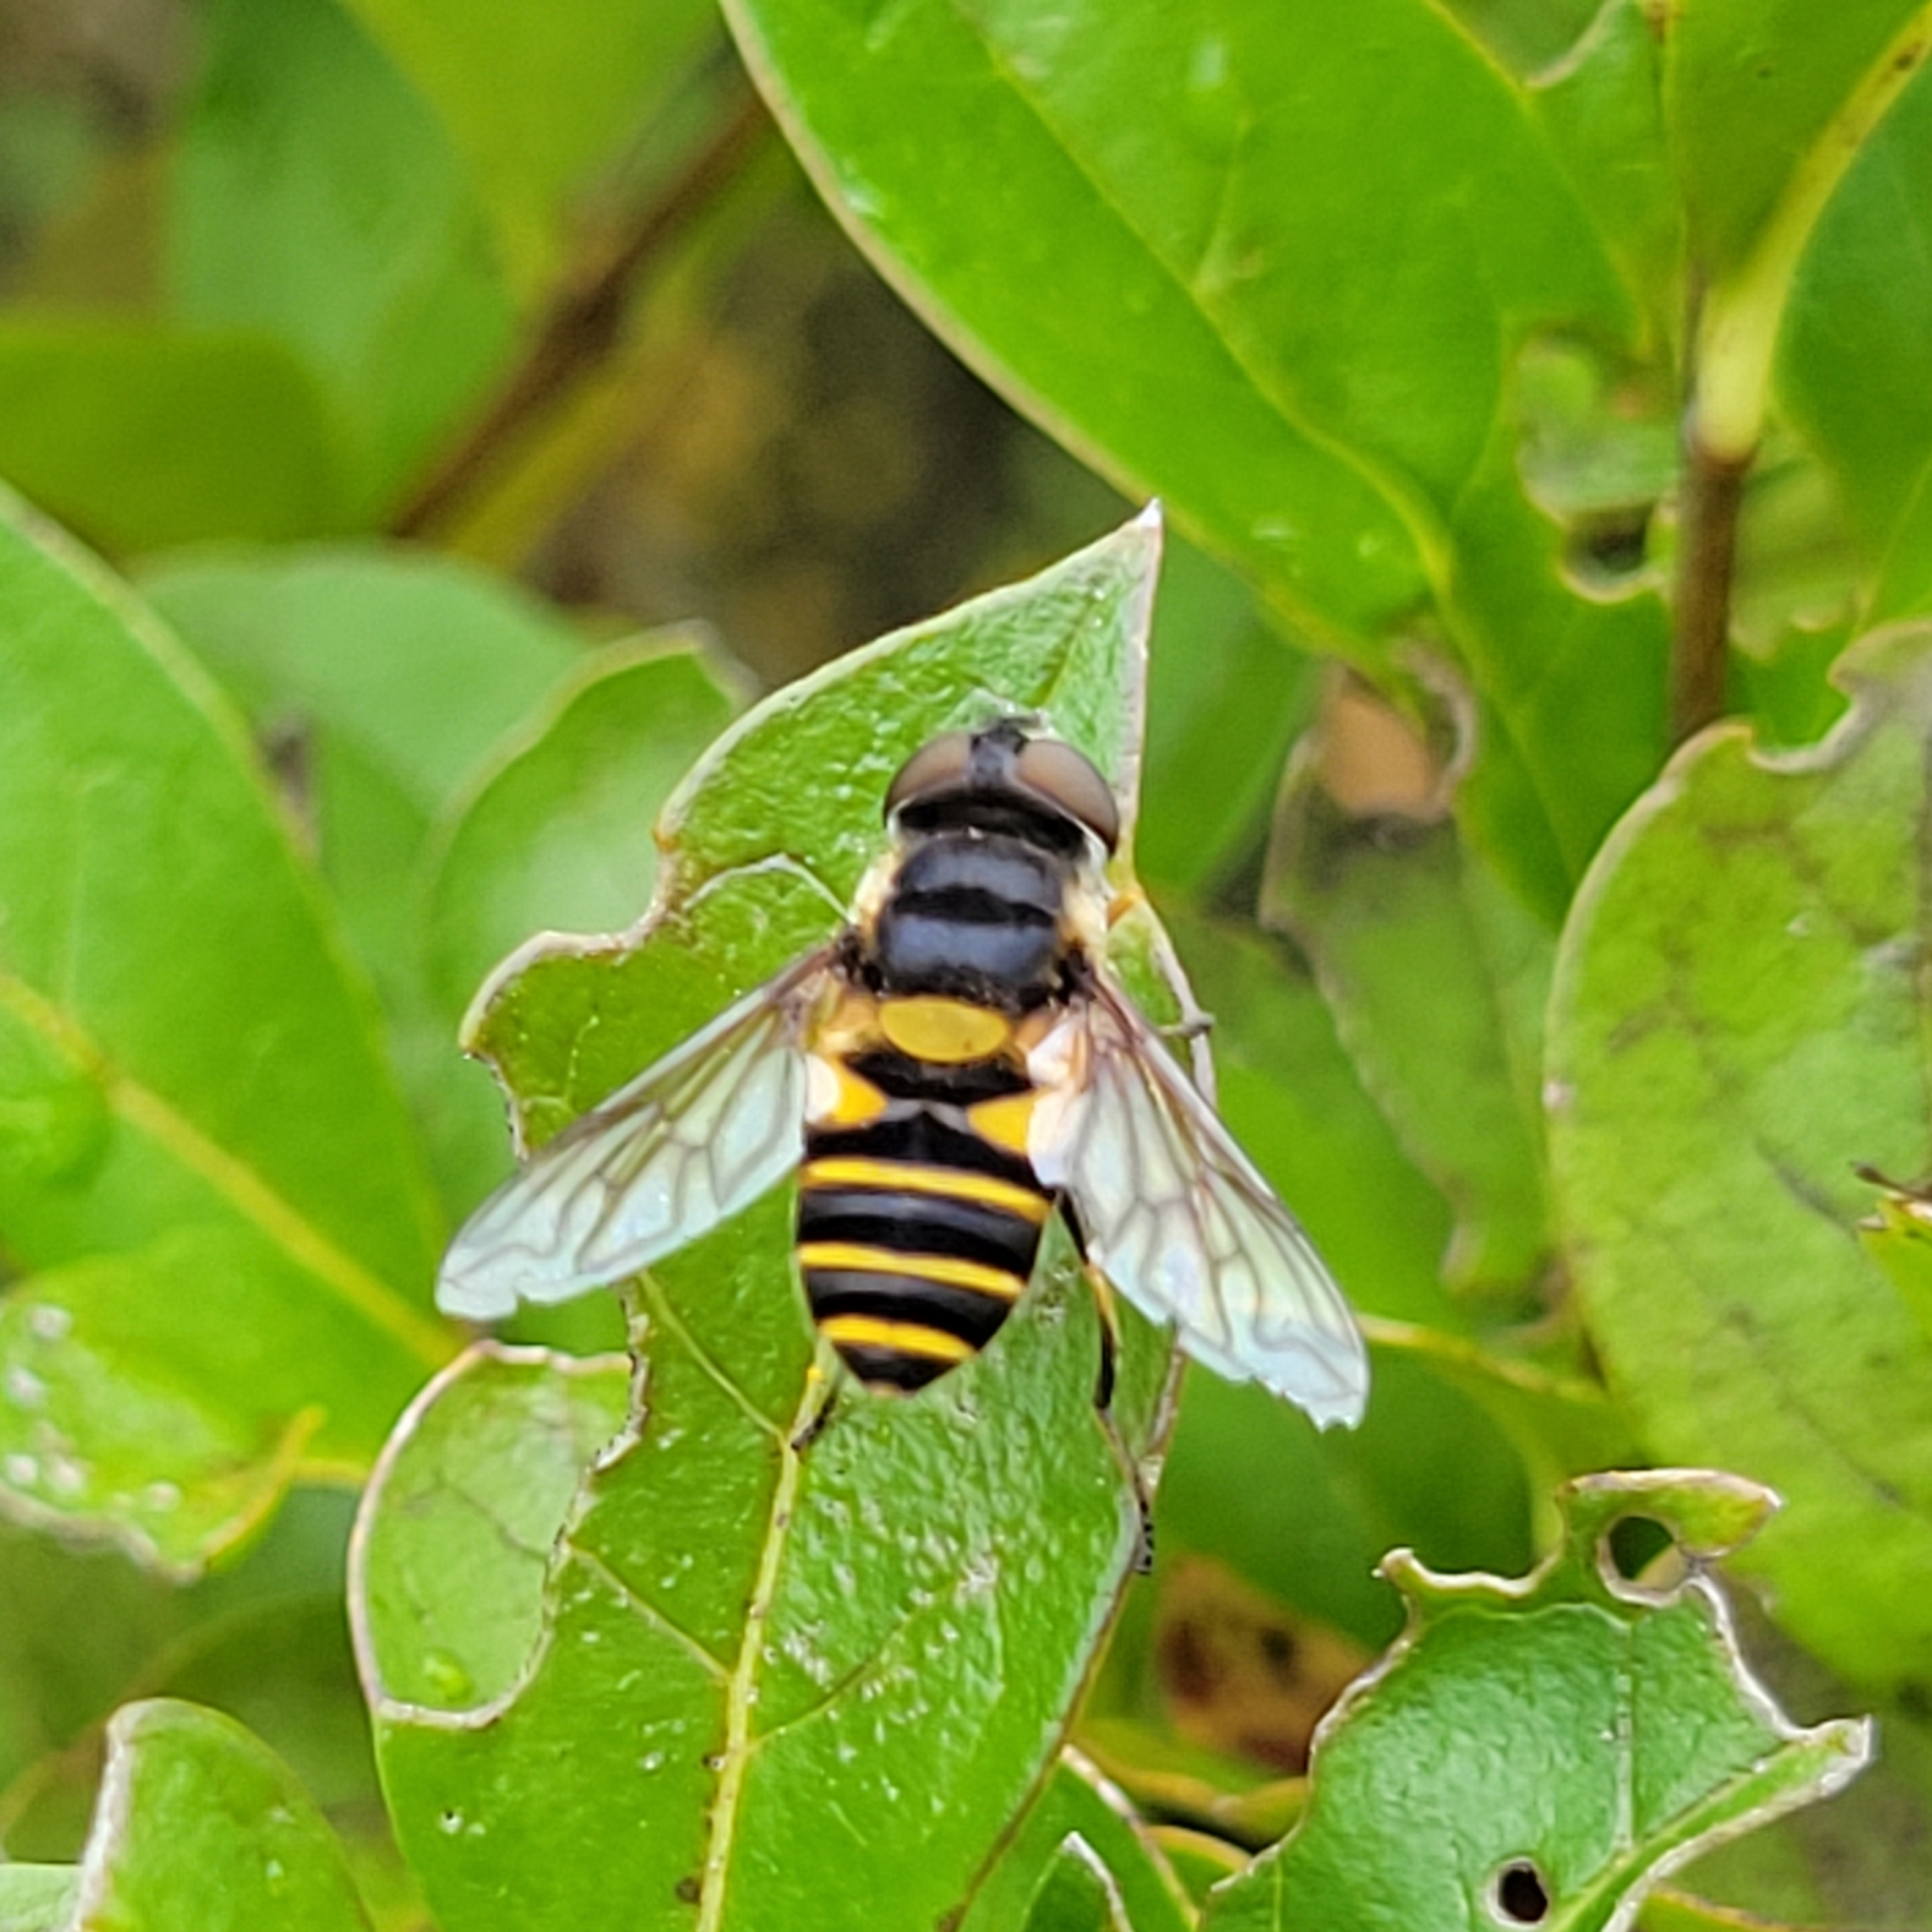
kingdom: Animalia
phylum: Arthropoda
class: Insecta
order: Diptera
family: Syrphidae
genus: Eristalis
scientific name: Eristalis transversa
